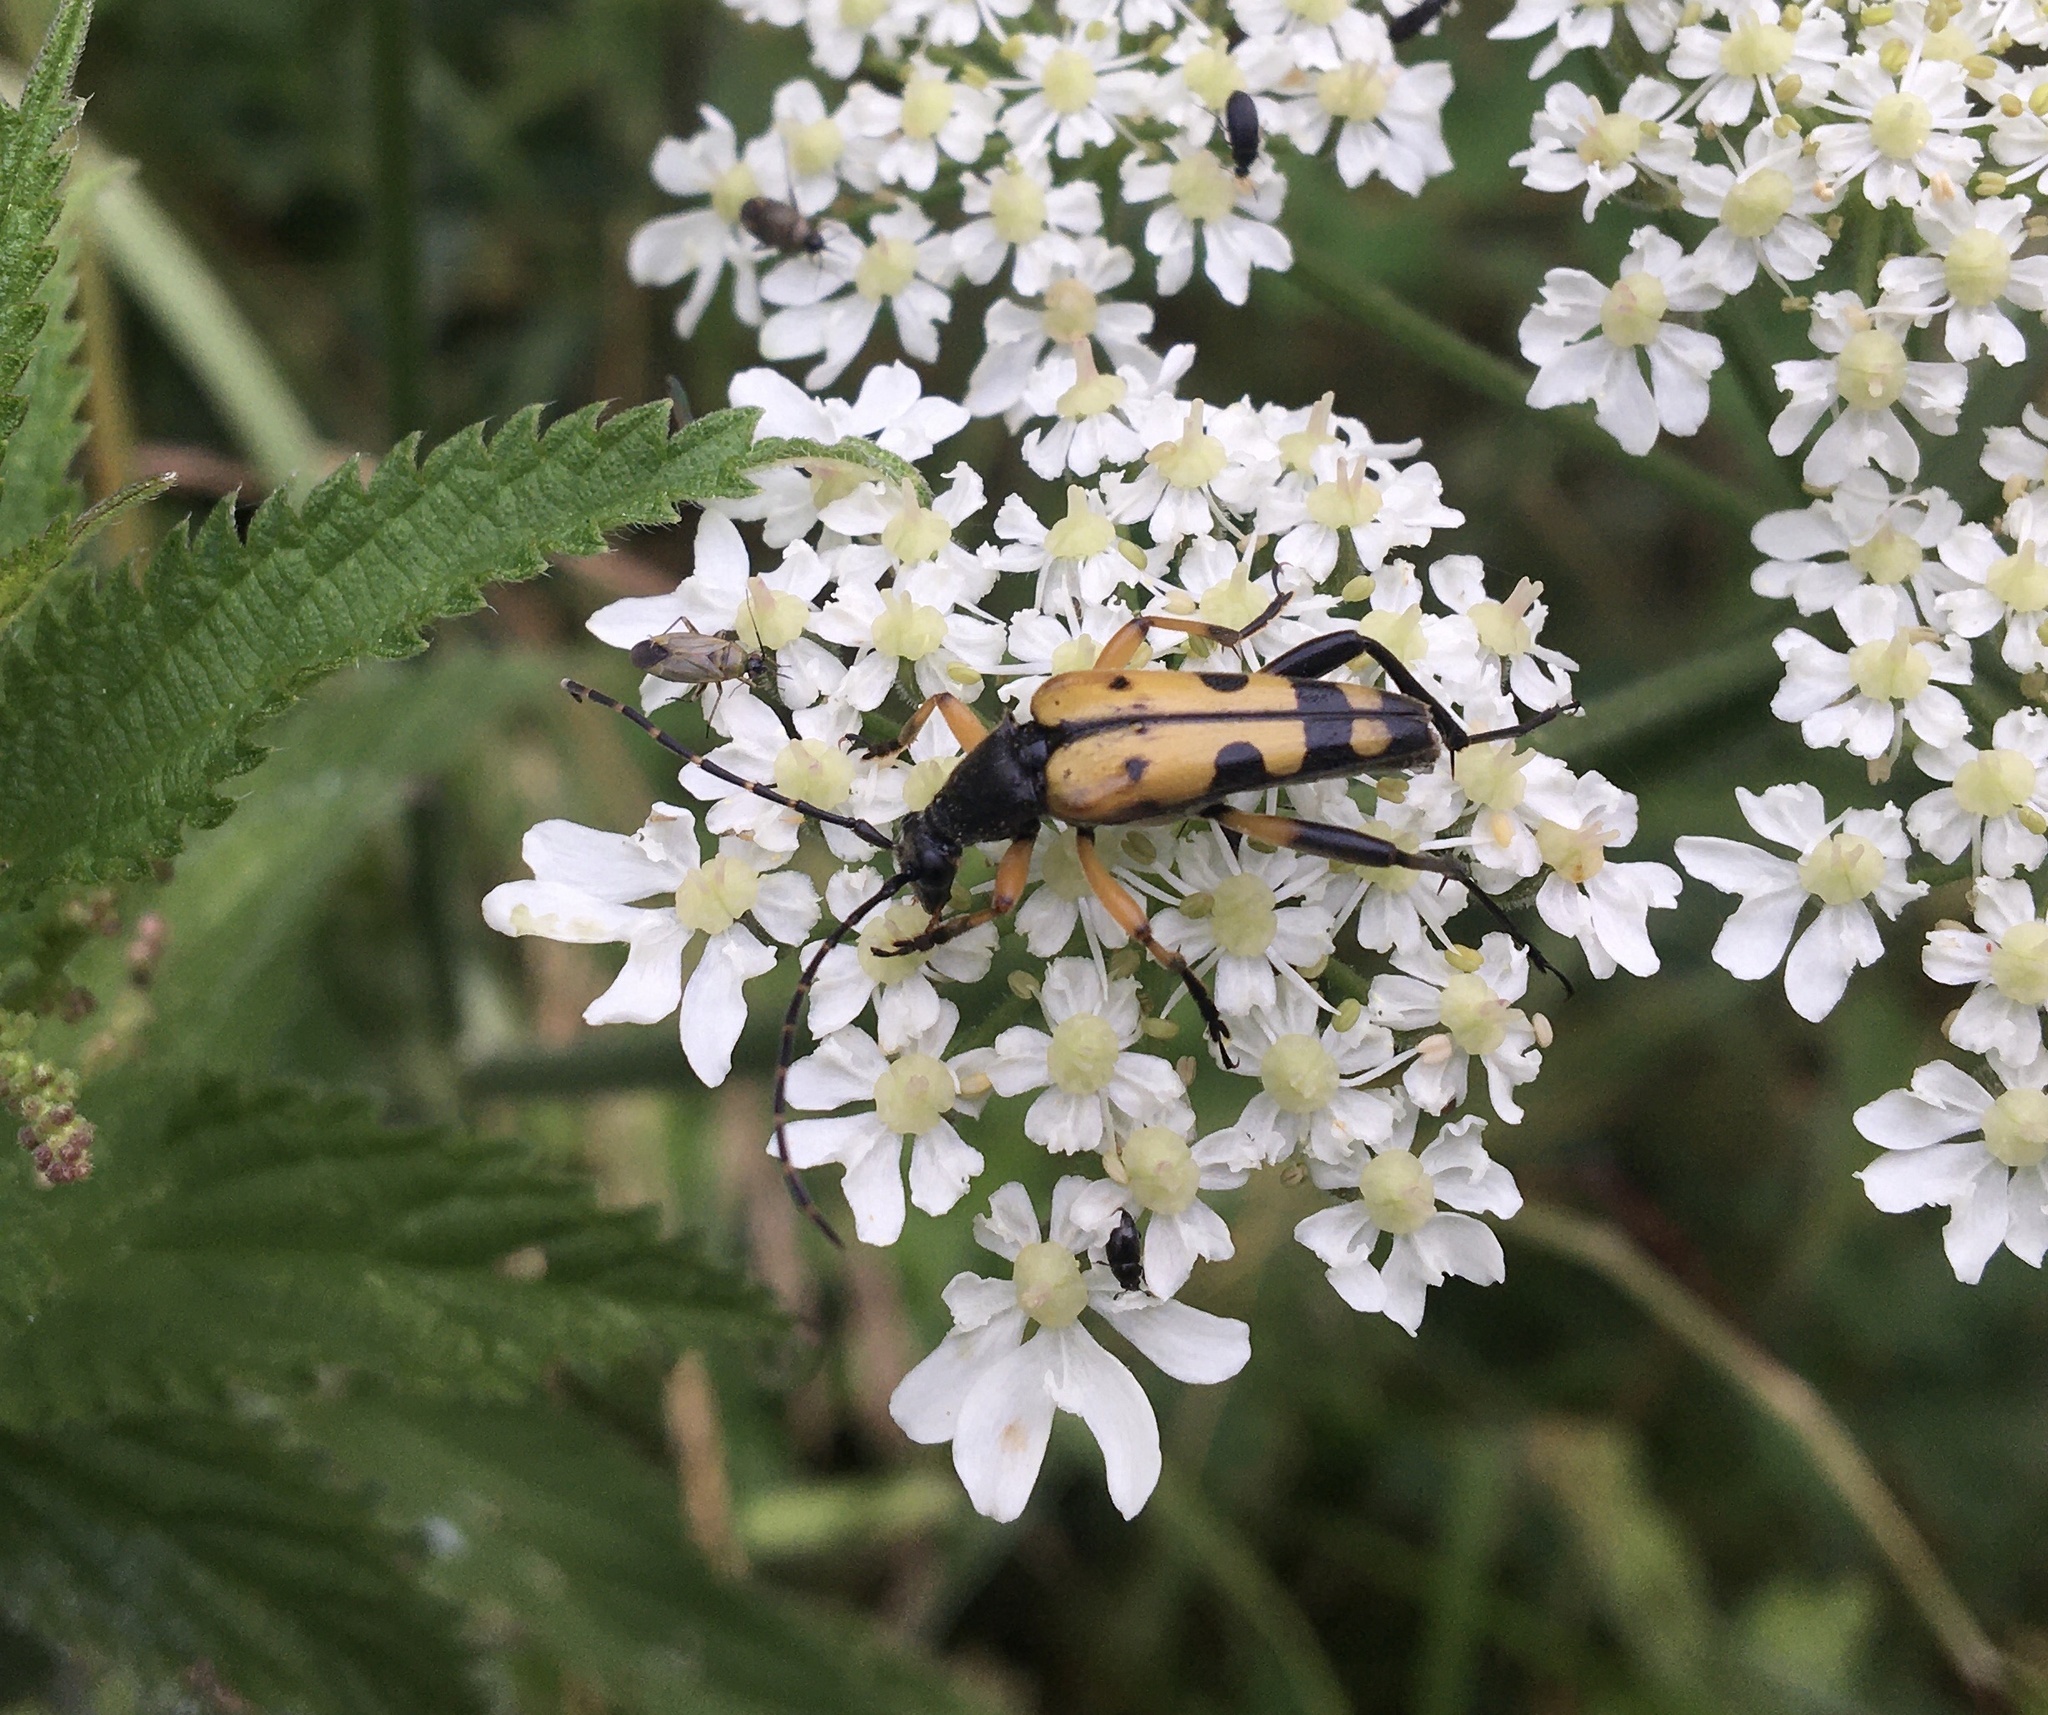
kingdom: Animalia
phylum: Arthropoda
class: Insecta
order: Coleoptera
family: Cerambycidae
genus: Rutpela
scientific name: Rutpela maculata
